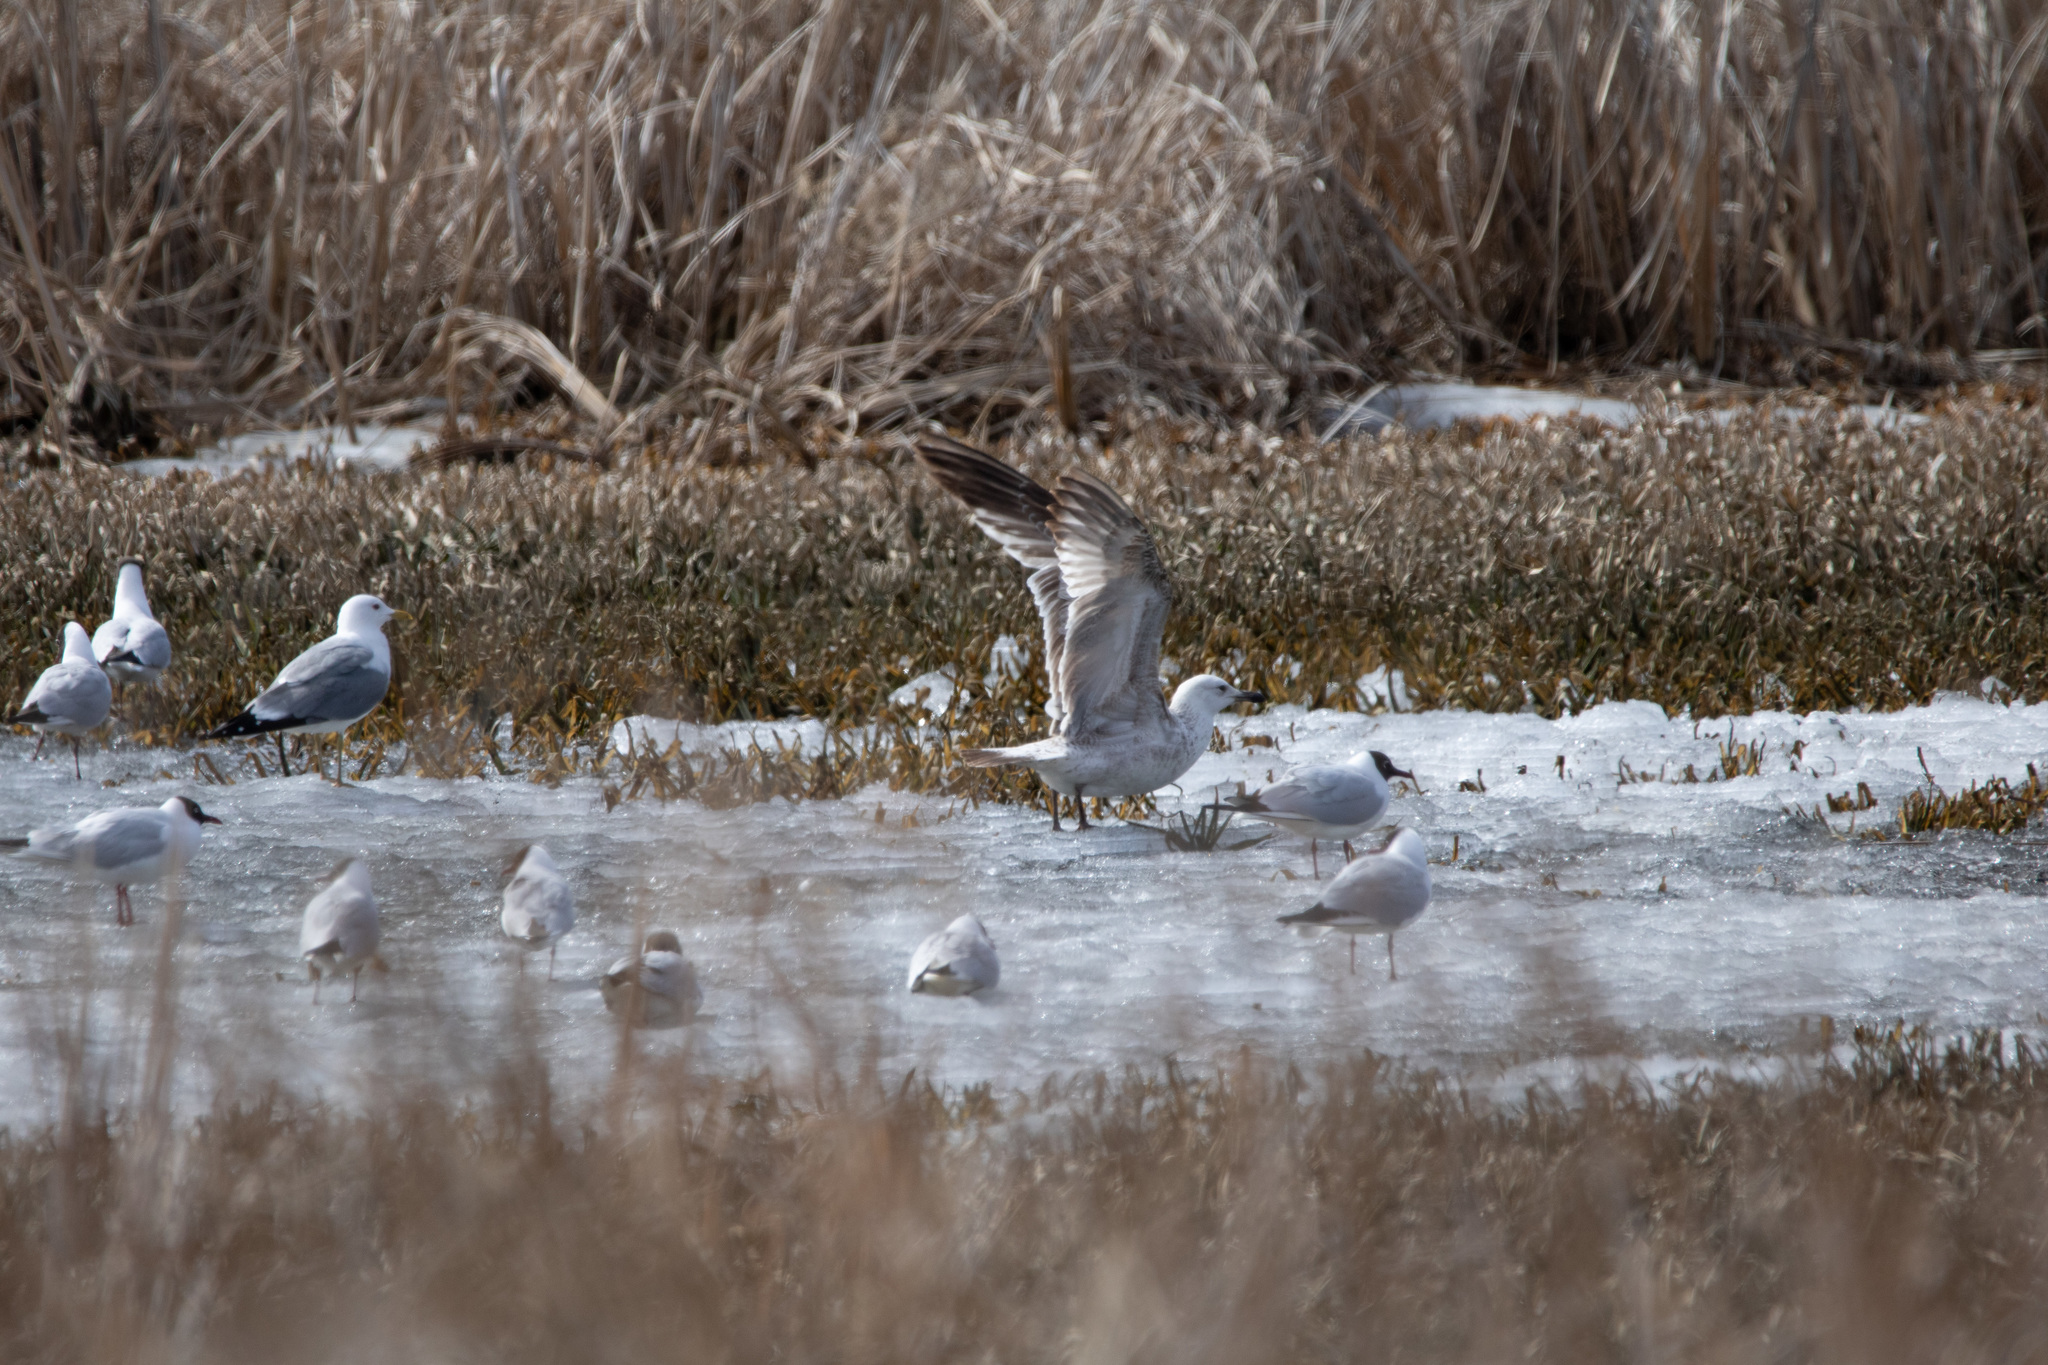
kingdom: Animalia
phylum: Chordata
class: Aves
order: Charadriiformes
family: Laridae
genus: Larus
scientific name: Larus canus
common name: Mew gull
